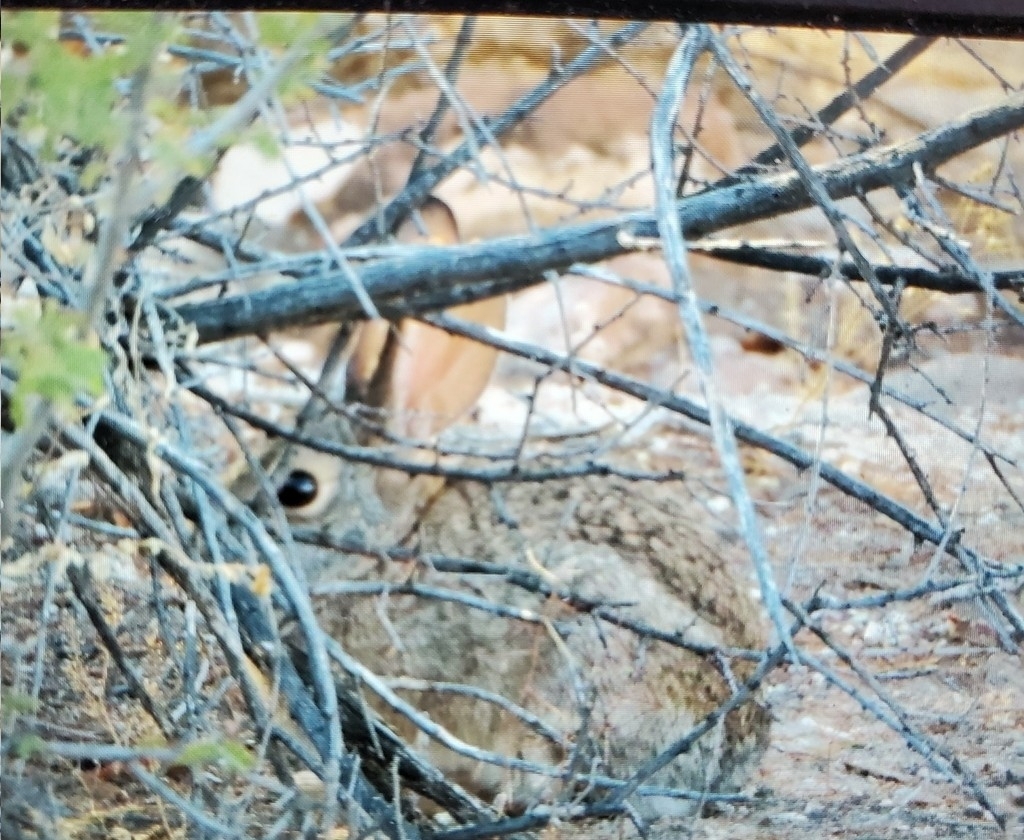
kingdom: Animalia
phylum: Chordata
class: Mammalia
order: Lagomorpha
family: Leporidae
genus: Sylvilagus
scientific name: Sylvilagus audubonii
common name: Desert cottontail
